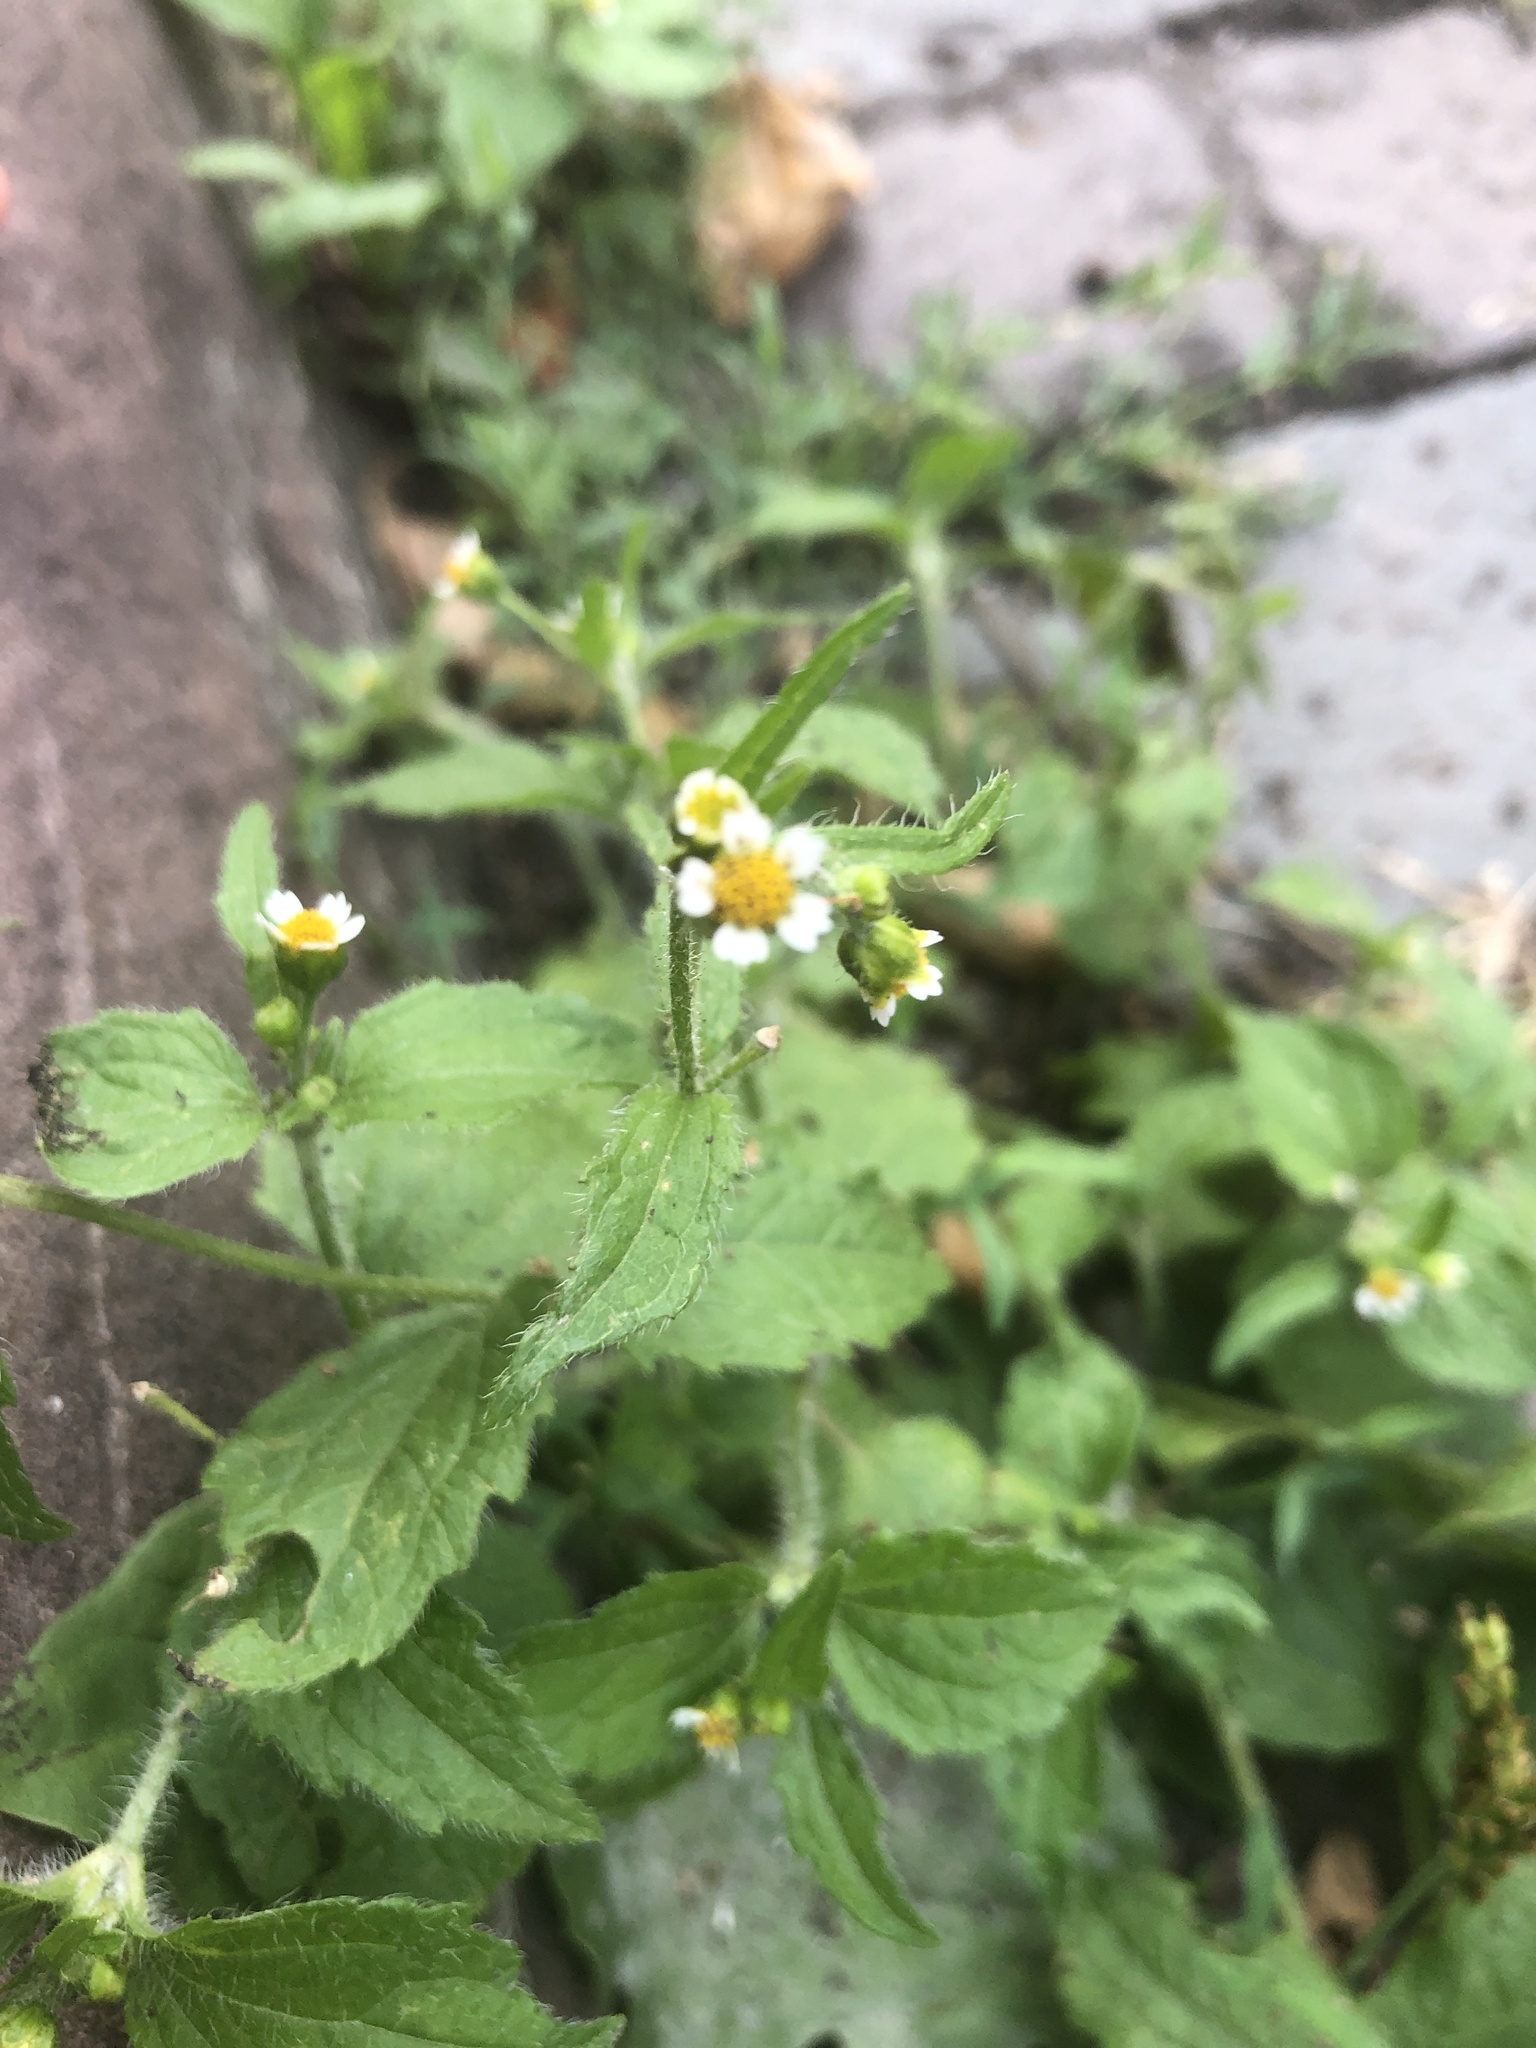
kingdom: Plantae
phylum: Tracheophyta
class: Magnoliopsida
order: Asterales
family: Asteraceae
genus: Galinsoga
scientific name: Galinsoga quadriradiata
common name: Shaggy soldier
